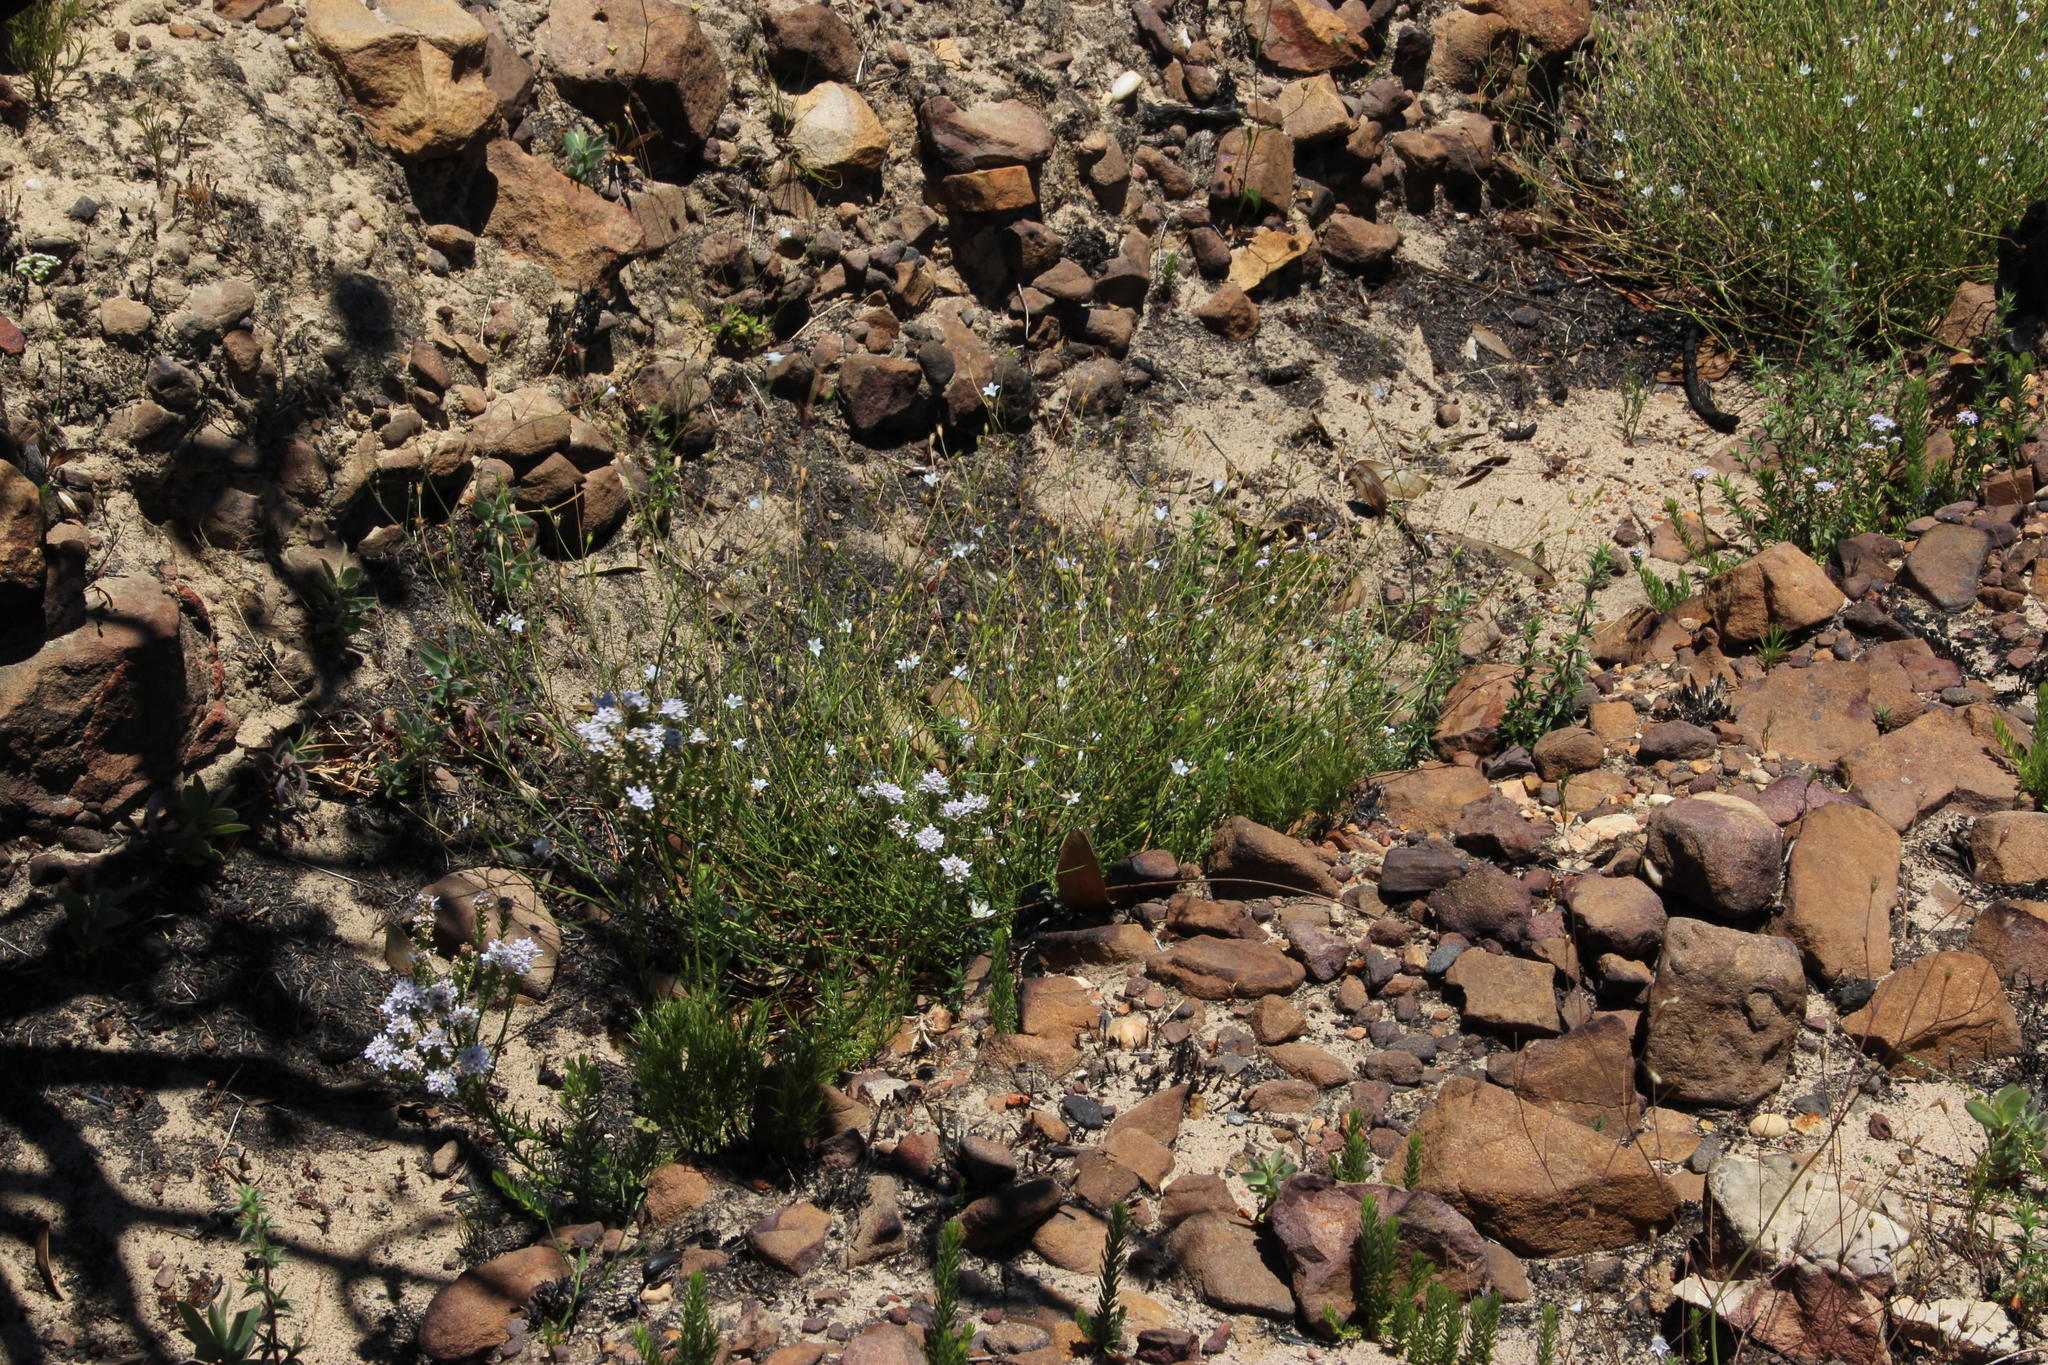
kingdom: Plantae
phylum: Tracheophyta
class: Magnoliopsida
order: Asterales
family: Campanulaceae
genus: Wahlenbergia
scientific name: Wahlenbergia cernua
